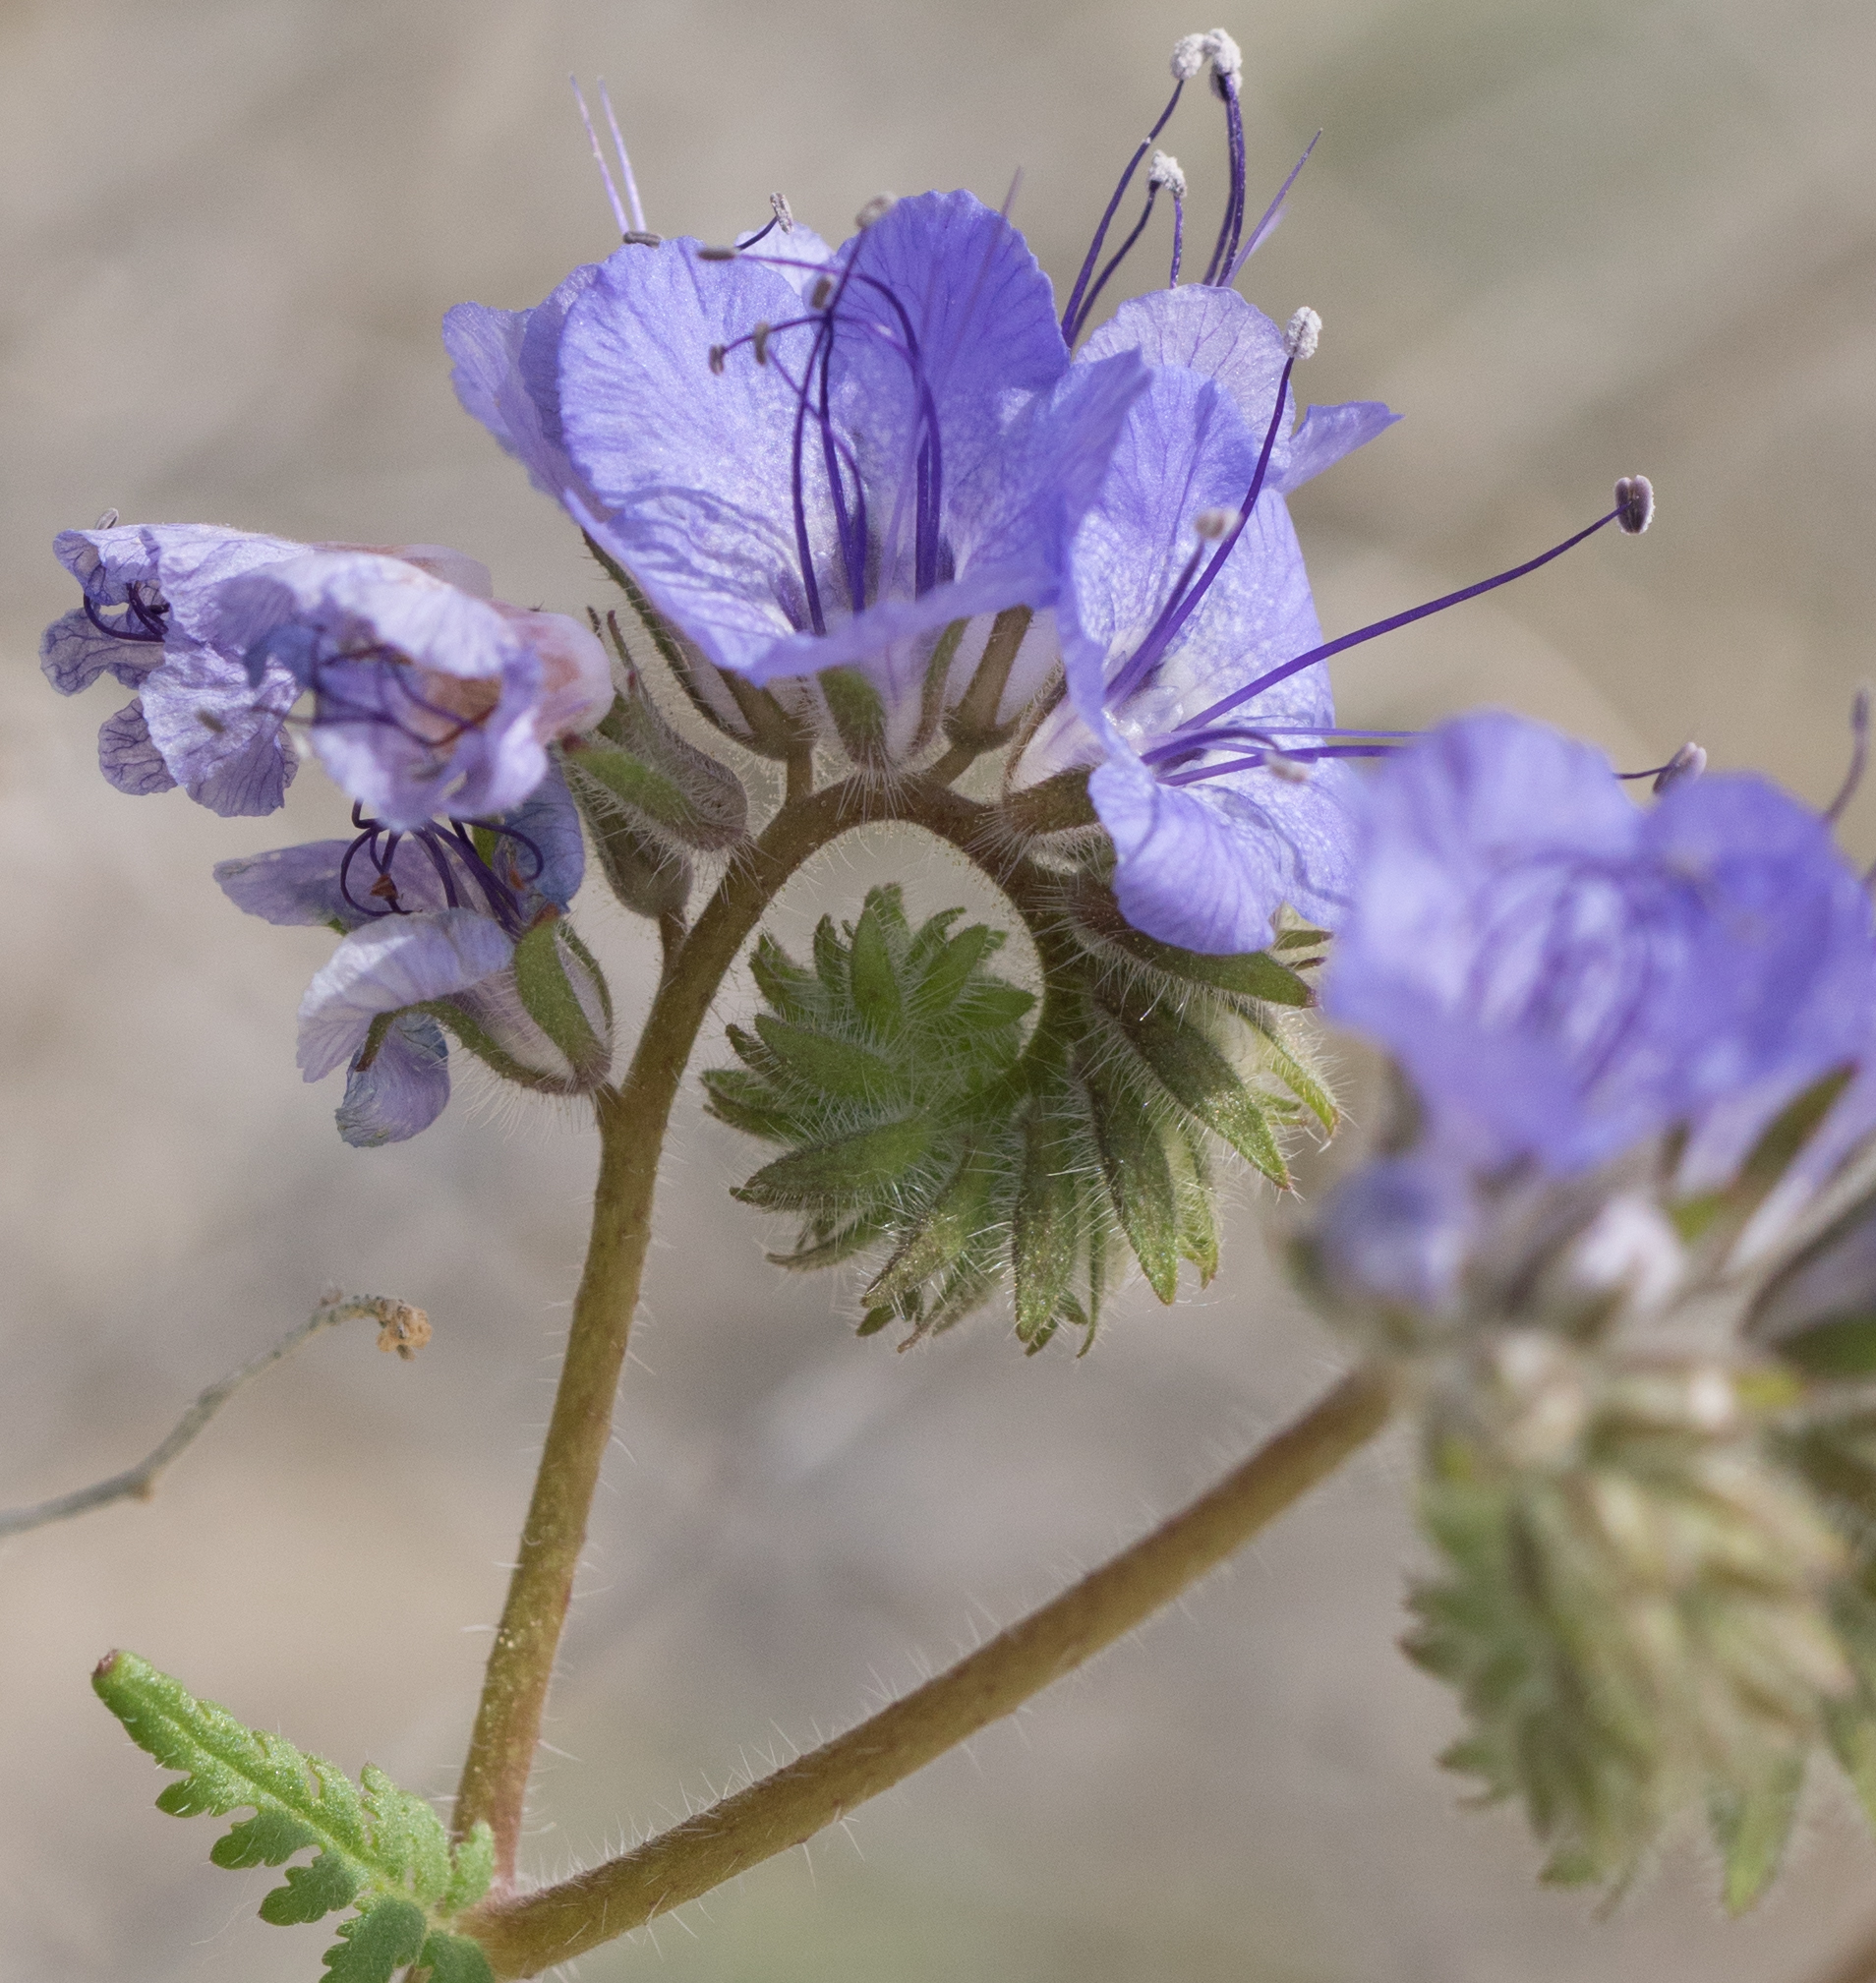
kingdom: Plantae
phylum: Tracheophyta
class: Magnoliopsida
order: Boraginales
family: Hydrophyllaceae
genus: Phacelia
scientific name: Phacelia distans
